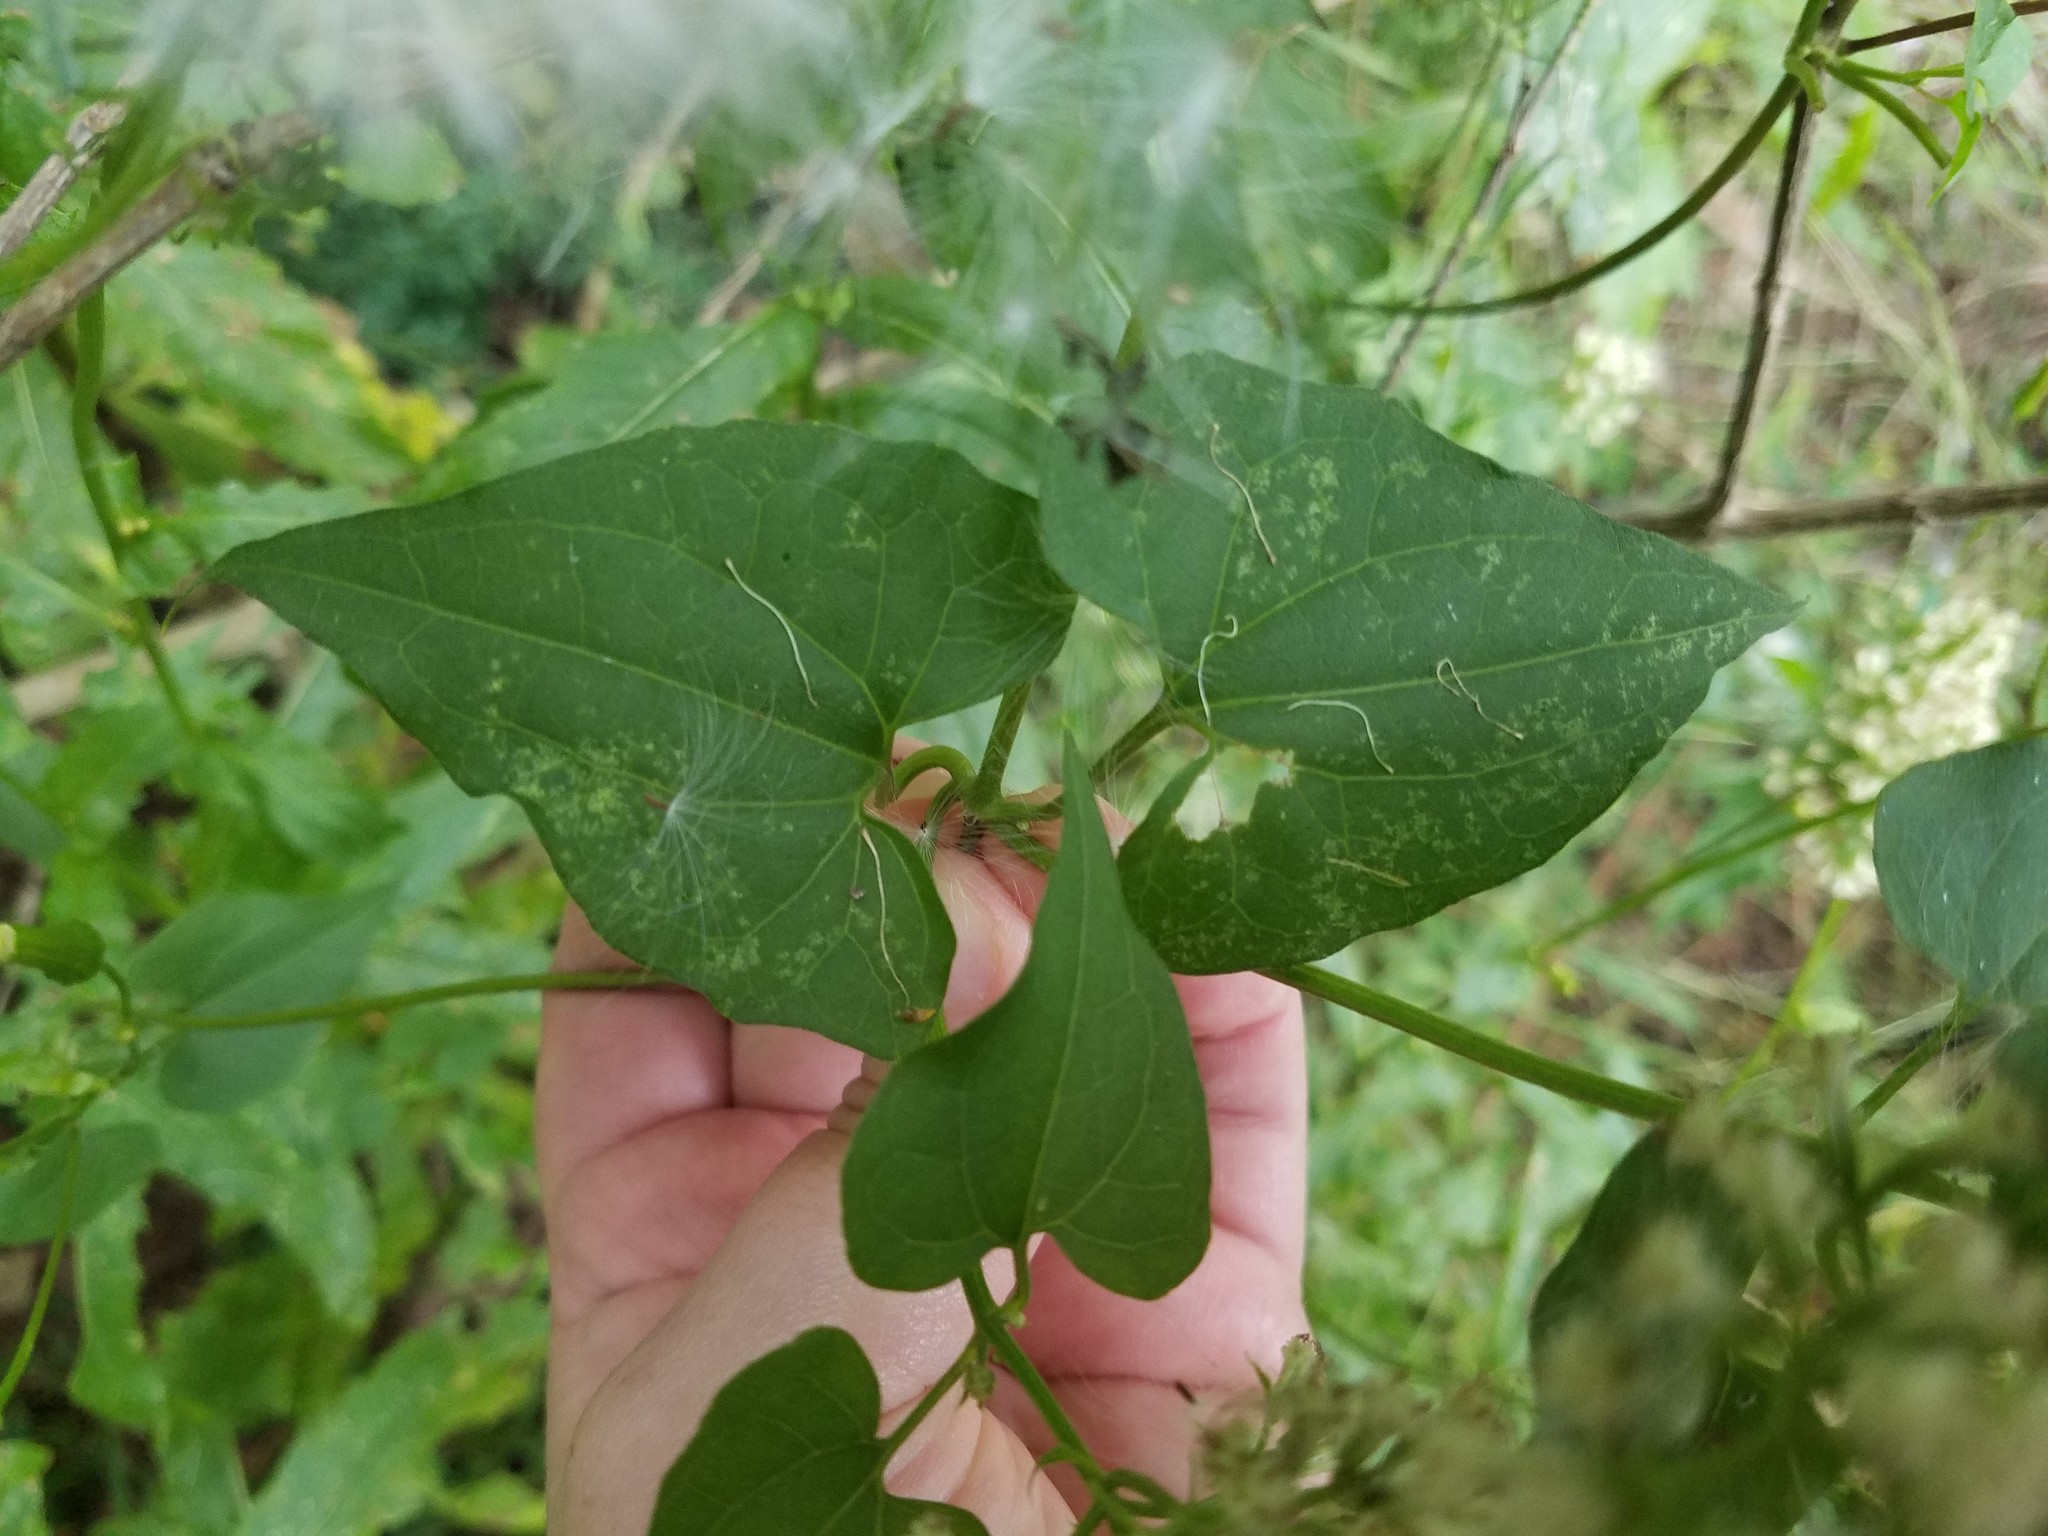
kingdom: Plantae
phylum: Tracheophyta
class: Magnoliopsida
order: Asterales
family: Asteraceae
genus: Mikania
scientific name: Mikania scandens
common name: Climbing hempvine
